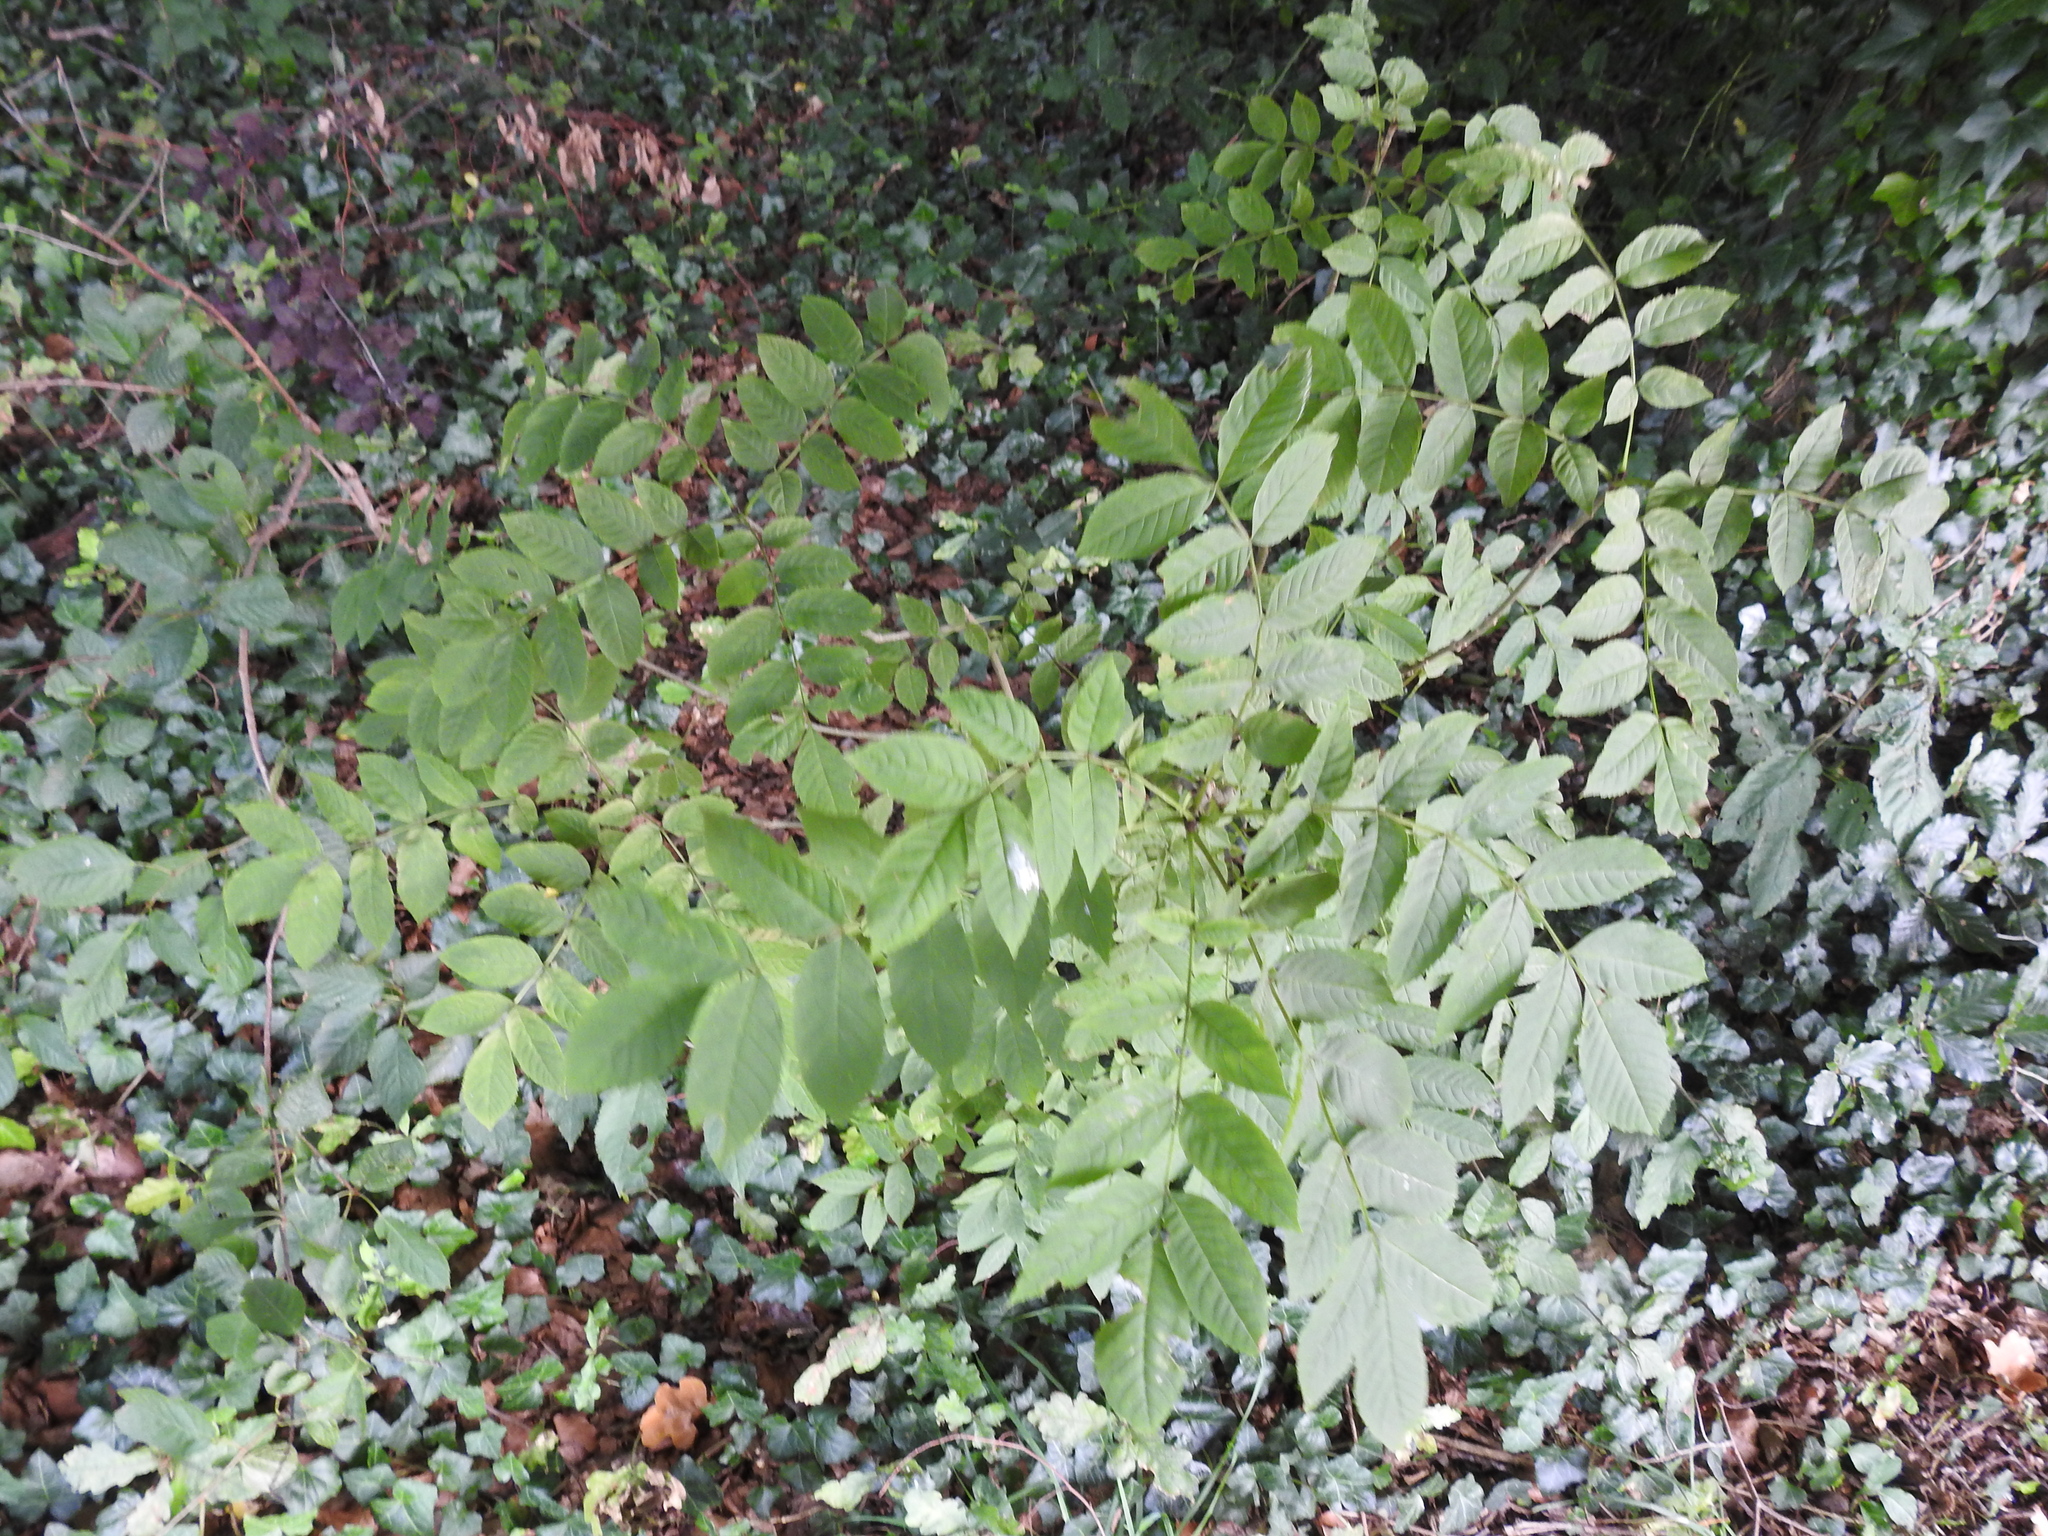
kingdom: Plantae
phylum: Tracheophyta
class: Magnoliopsida
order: Lamiales
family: Oleaceae
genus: Fraxinus
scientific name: Fraxinus excelsior
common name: European ash
